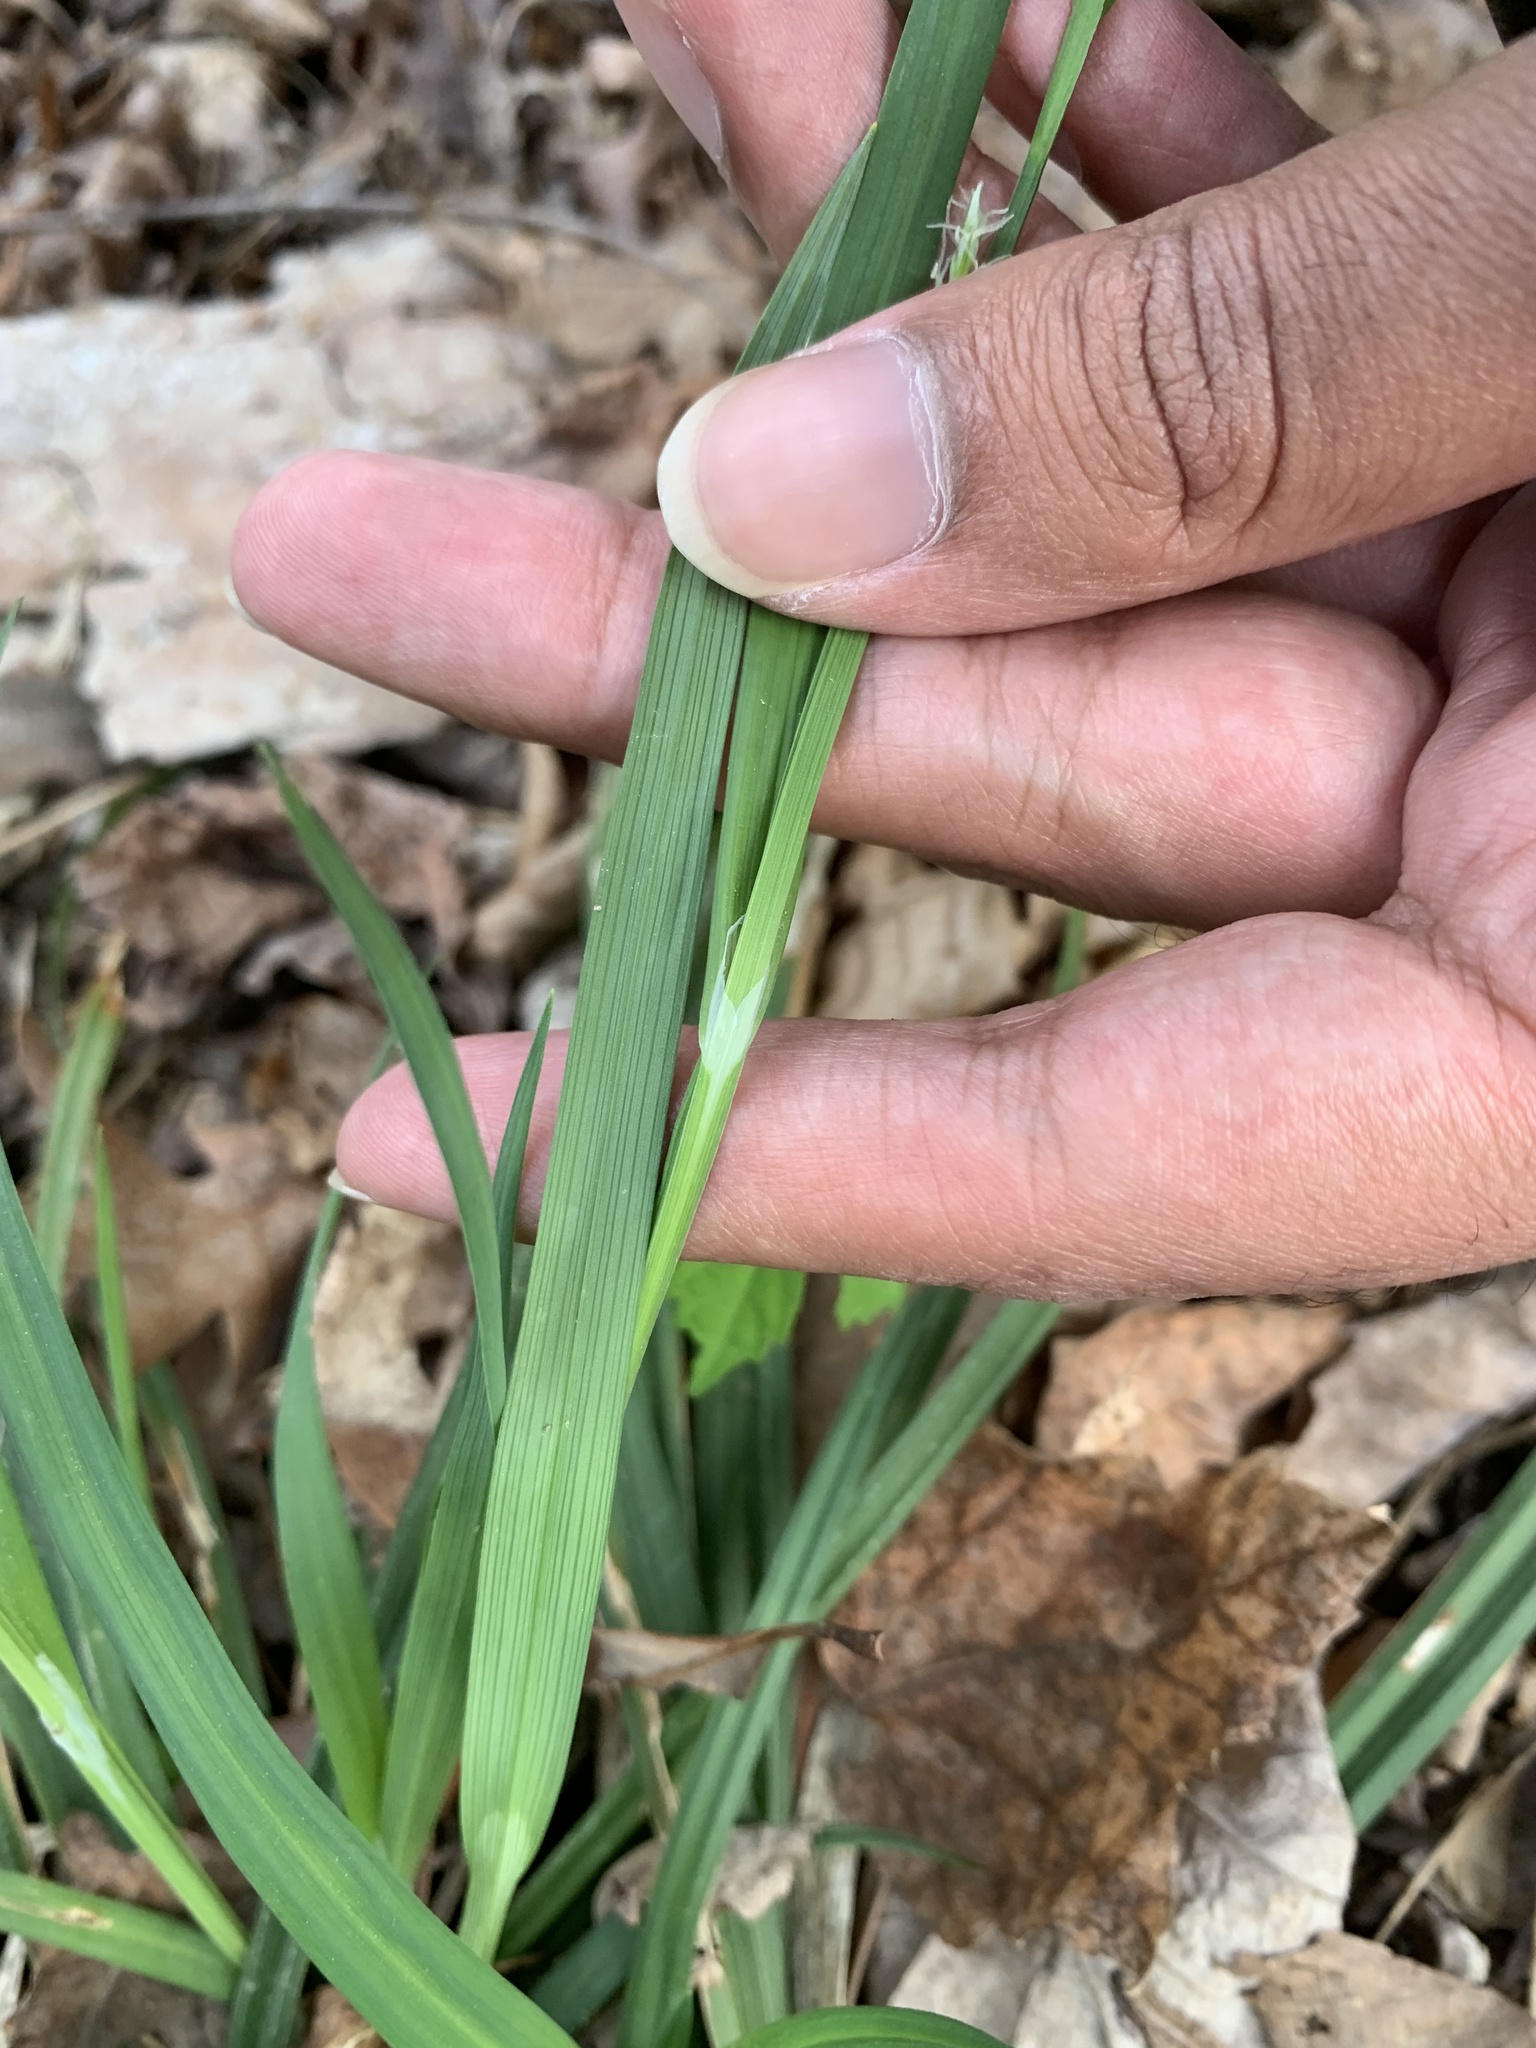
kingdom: Plantae
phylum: Tracheophyta
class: Liliopsida
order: Poales
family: Cyperaceae
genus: Carex
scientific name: Carex laxiflora
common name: Beech wood sedge
